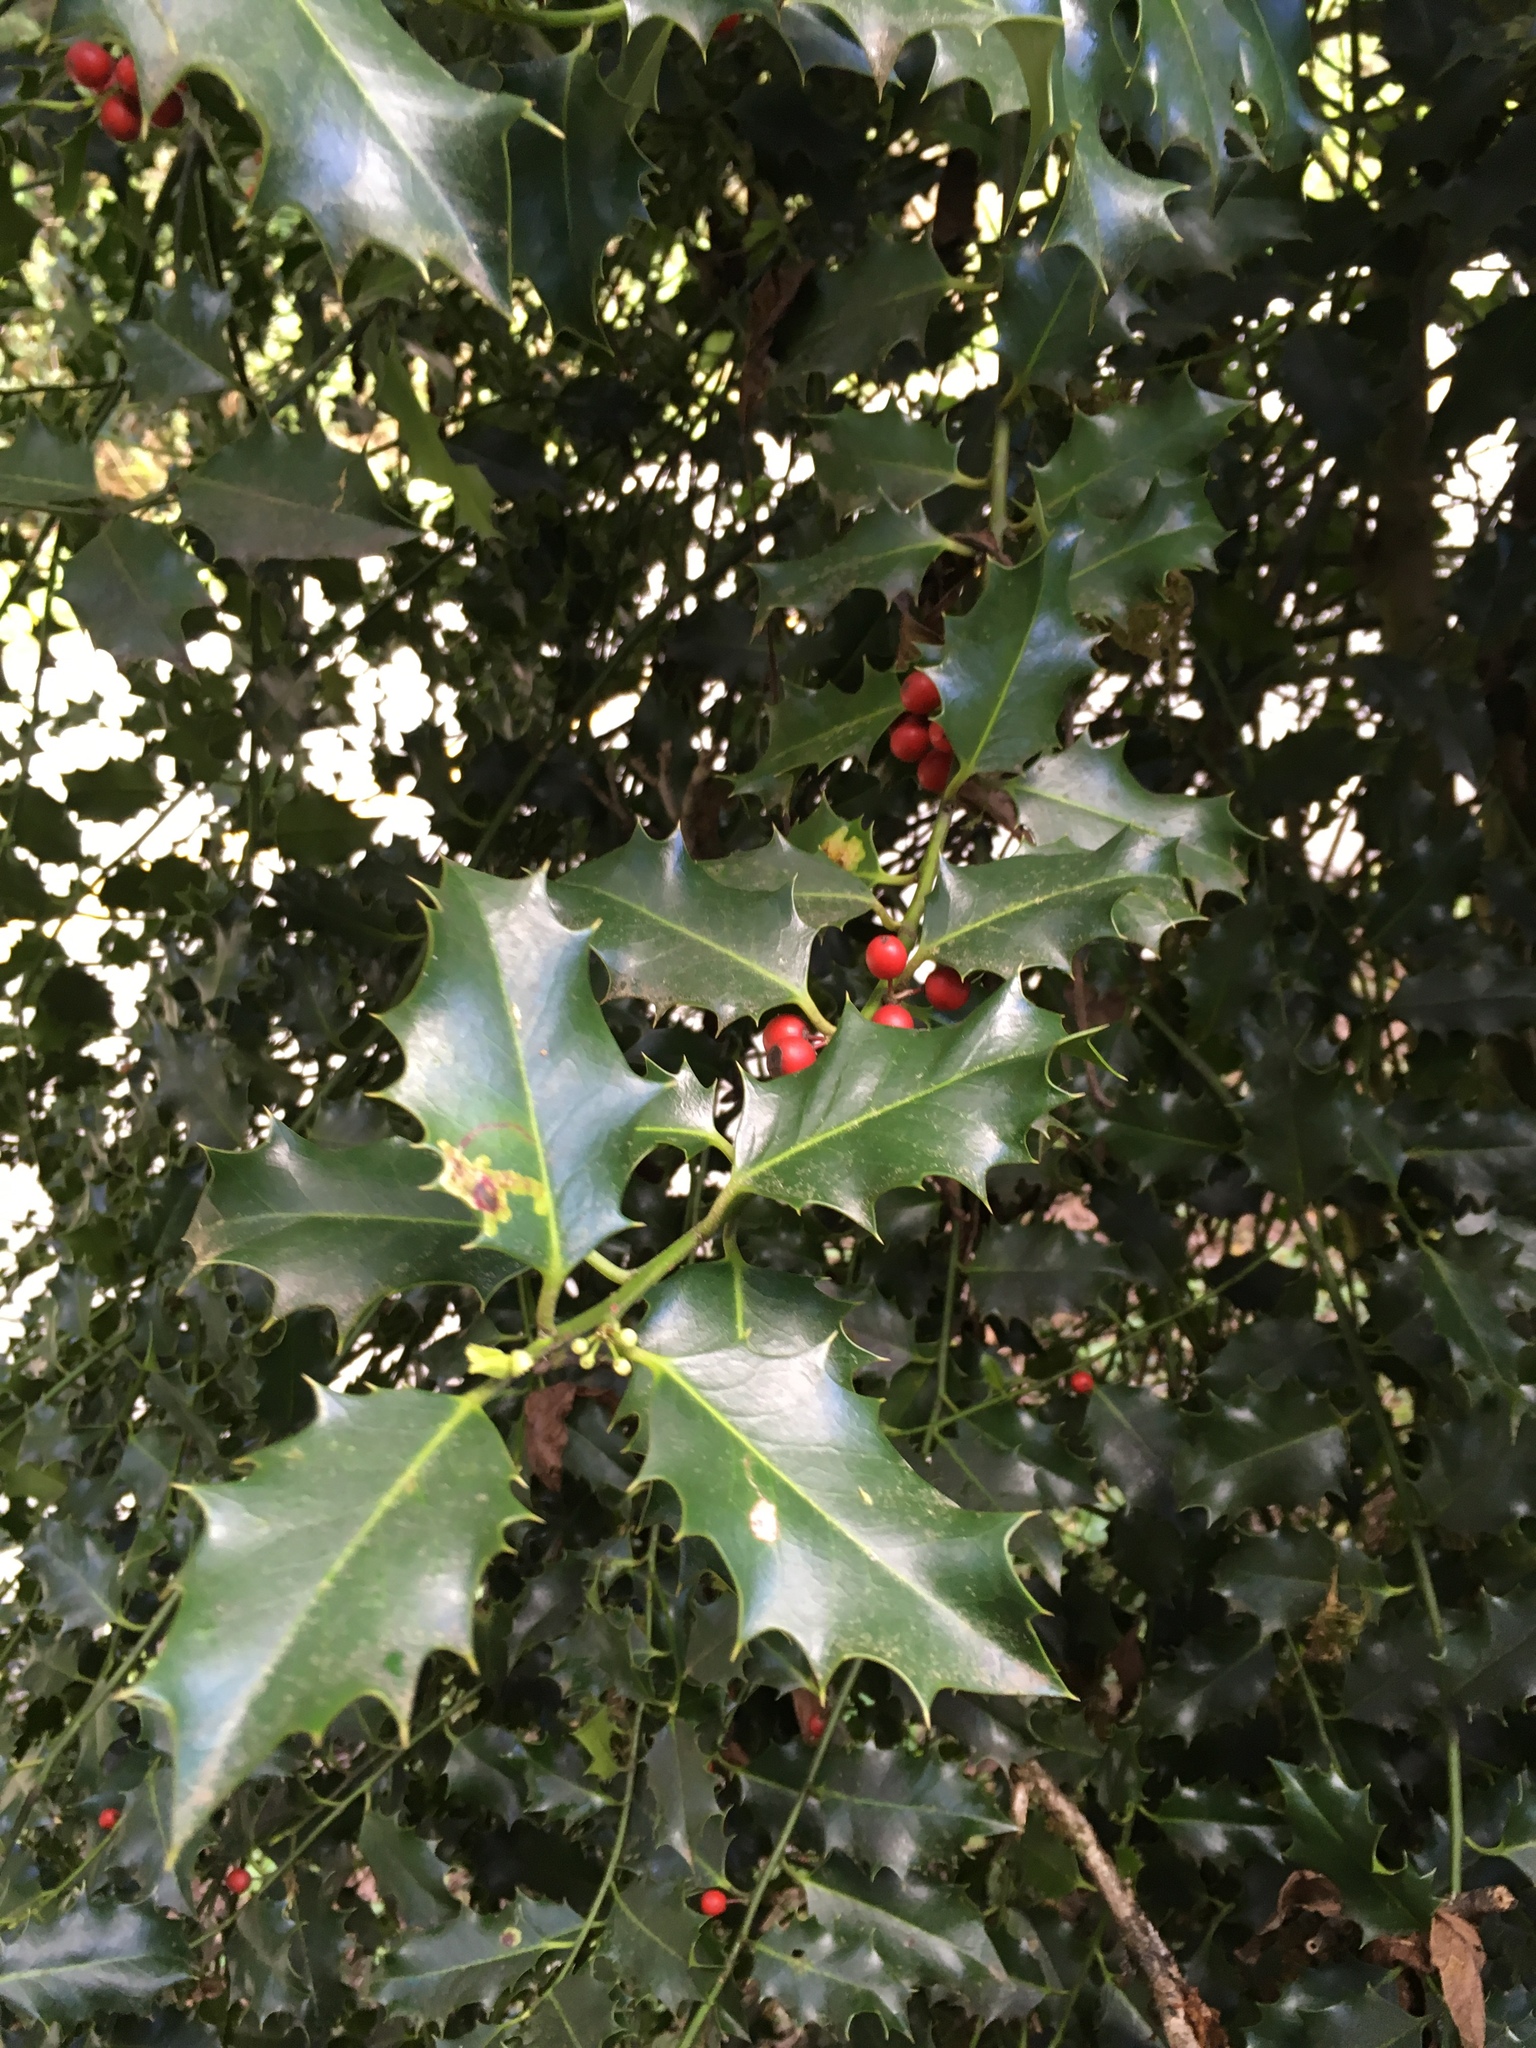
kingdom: Plantae
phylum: Tracheophyta
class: Magnoliopsida
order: Aquifoliales
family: Aquifoliaceae
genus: Ilex
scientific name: Ilex aquifolium
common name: English holly
